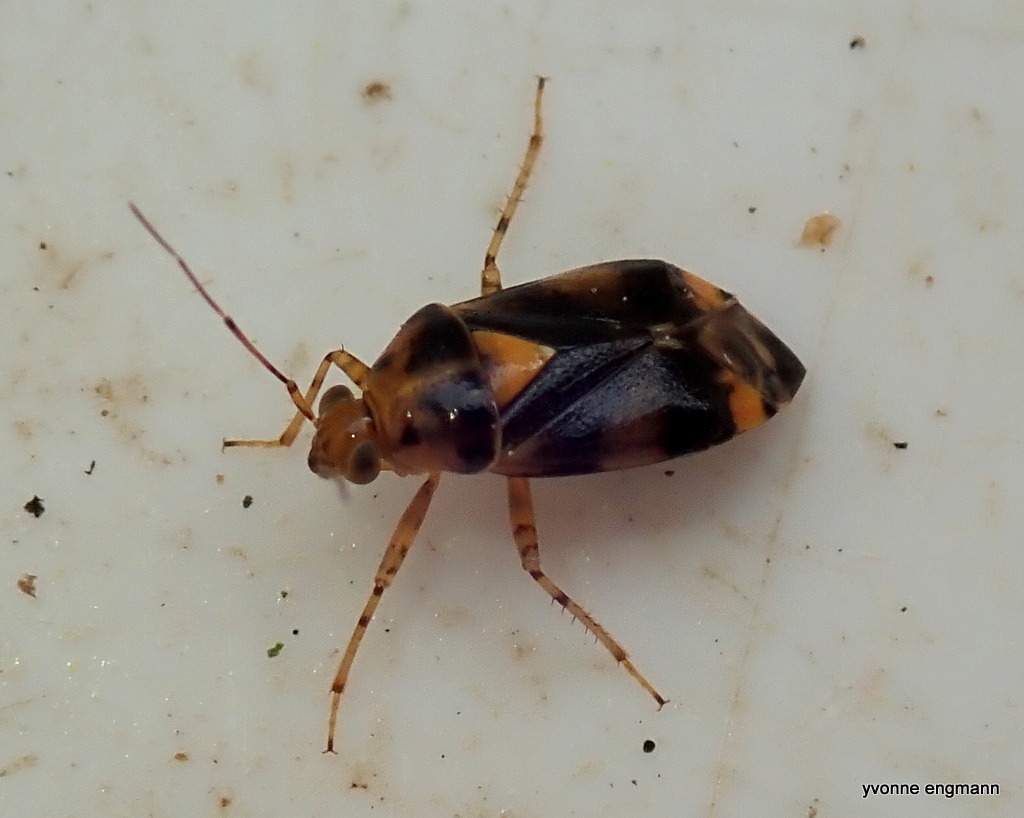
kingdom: Animalia
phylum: Arthropoda
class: Insecta
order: Hemiptera
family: Miridae
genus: Liocoris
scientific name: Liocoris tripustulatus
